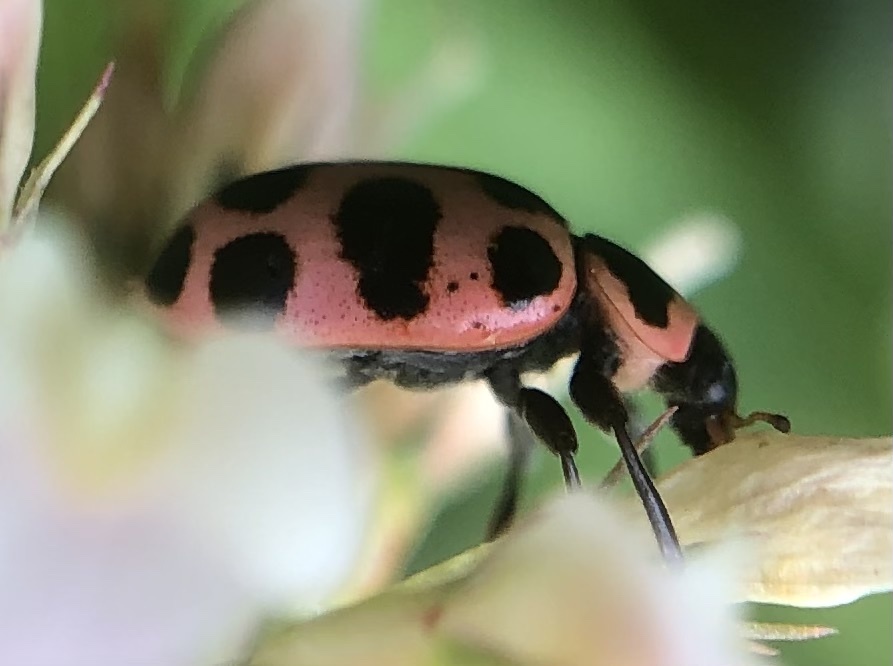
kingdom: Animalia
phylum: Arthropoda
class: Insecta
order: Coleoptera
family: Coccinellidae
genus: Coleomegilla
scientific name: Coleomegilla maculata
